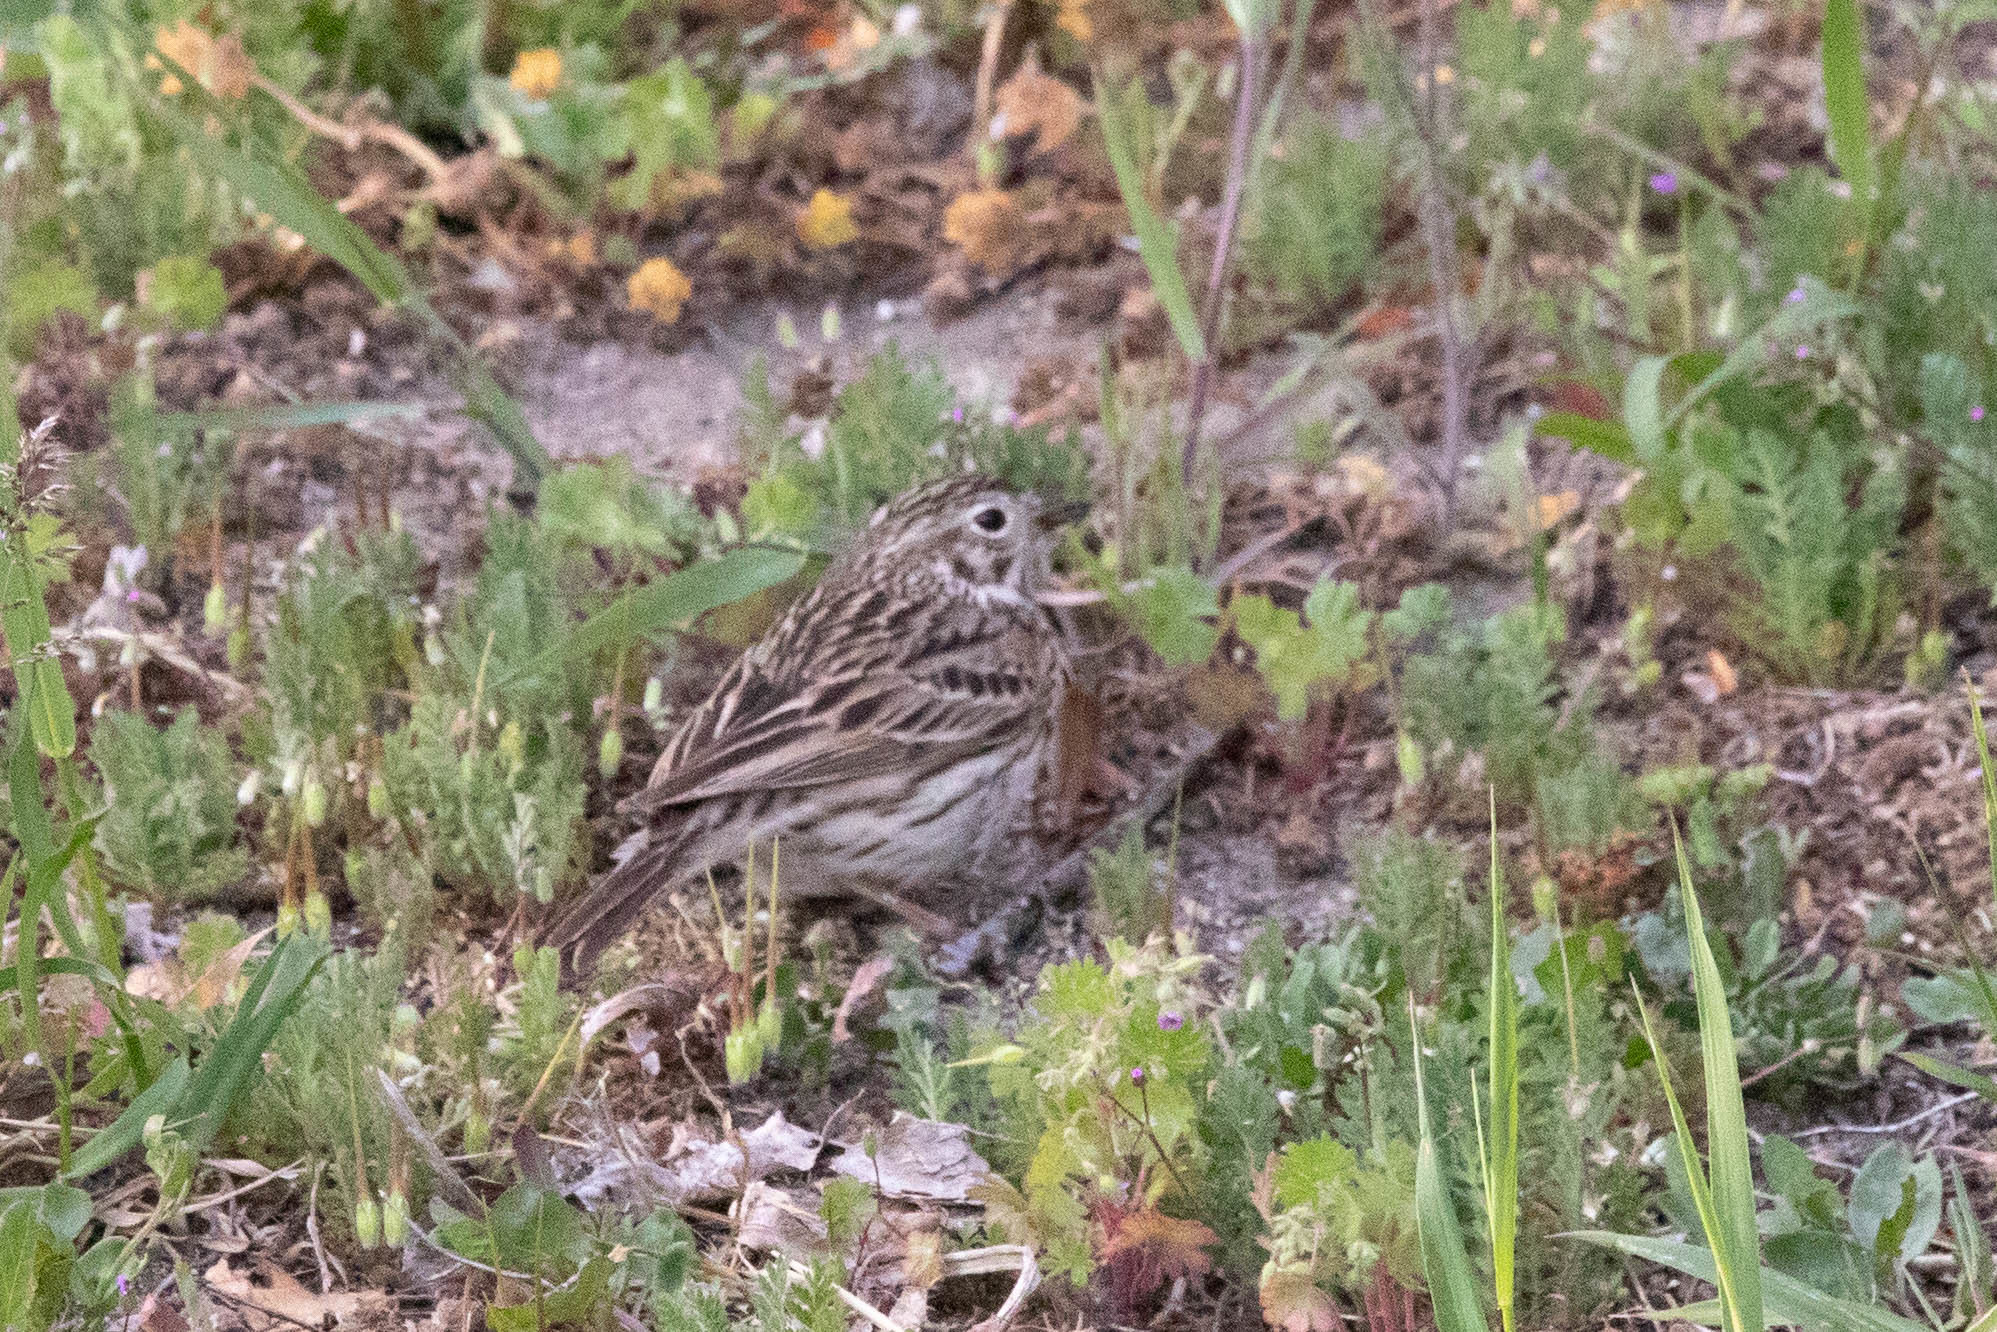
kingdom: Animalia
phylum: Chordata
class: Aves
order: Passeriformes
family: Passerellidae
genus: Pooecetes
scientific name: Pooecetes gramineus
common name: Vesper sparrow
